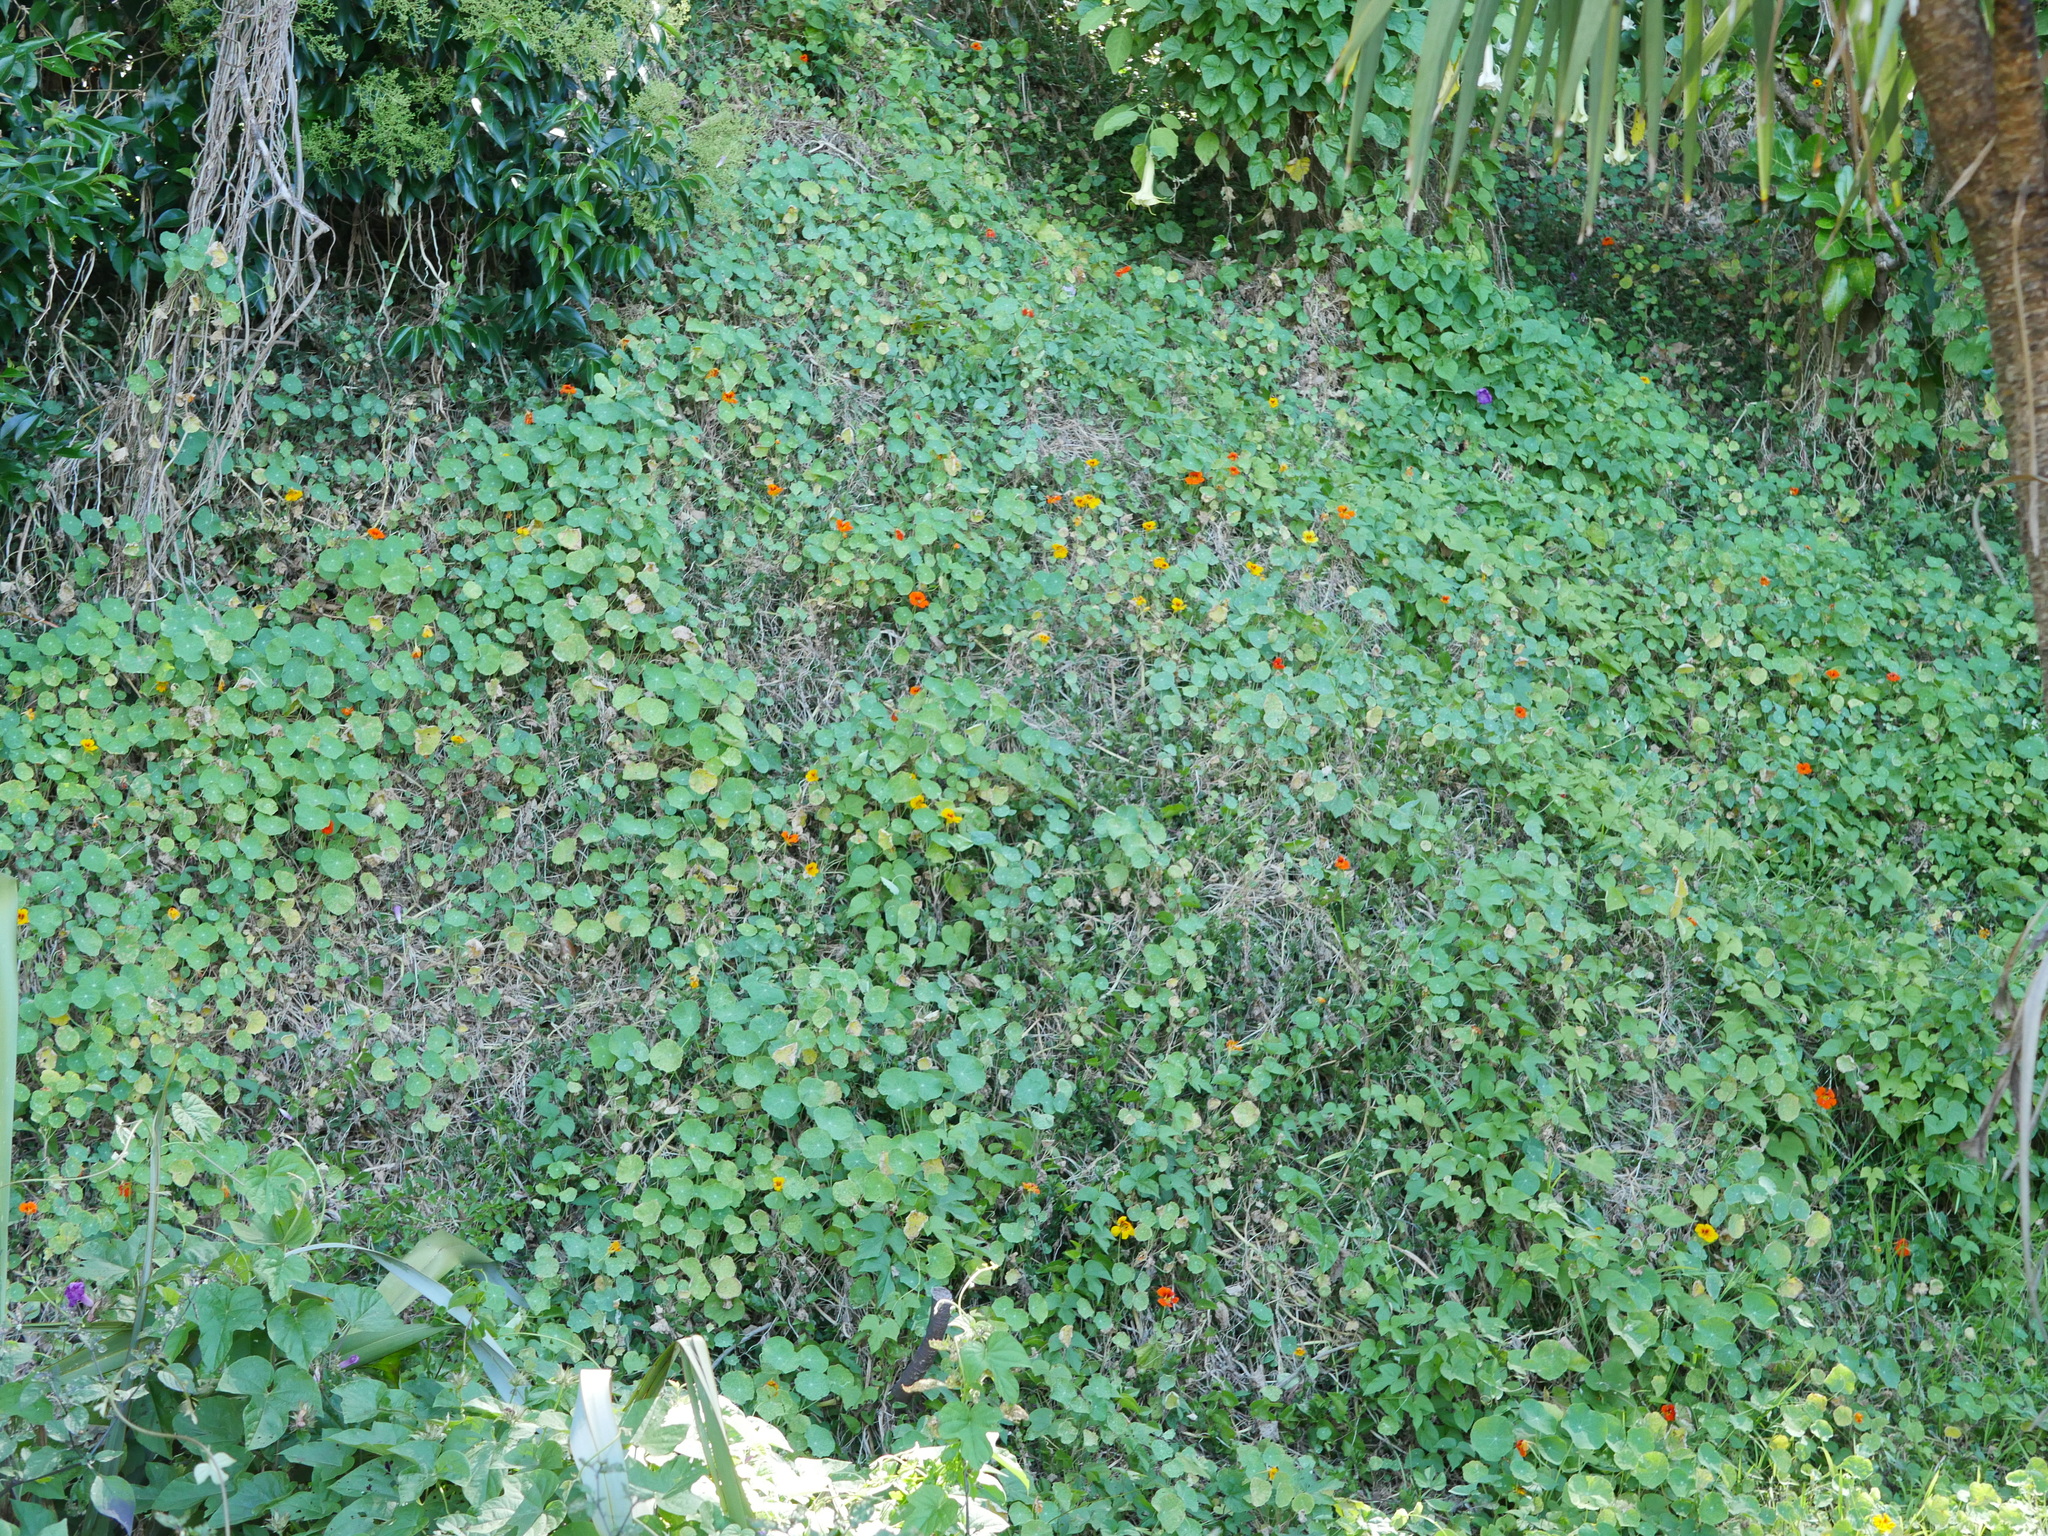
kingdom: Plantae
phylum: Tracheophyta
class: Magnoliopsida
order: Brassicales
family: Tropaeolaceae
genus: Tropaeolum
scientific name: Tropaeolum majus
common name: Nasturtium
